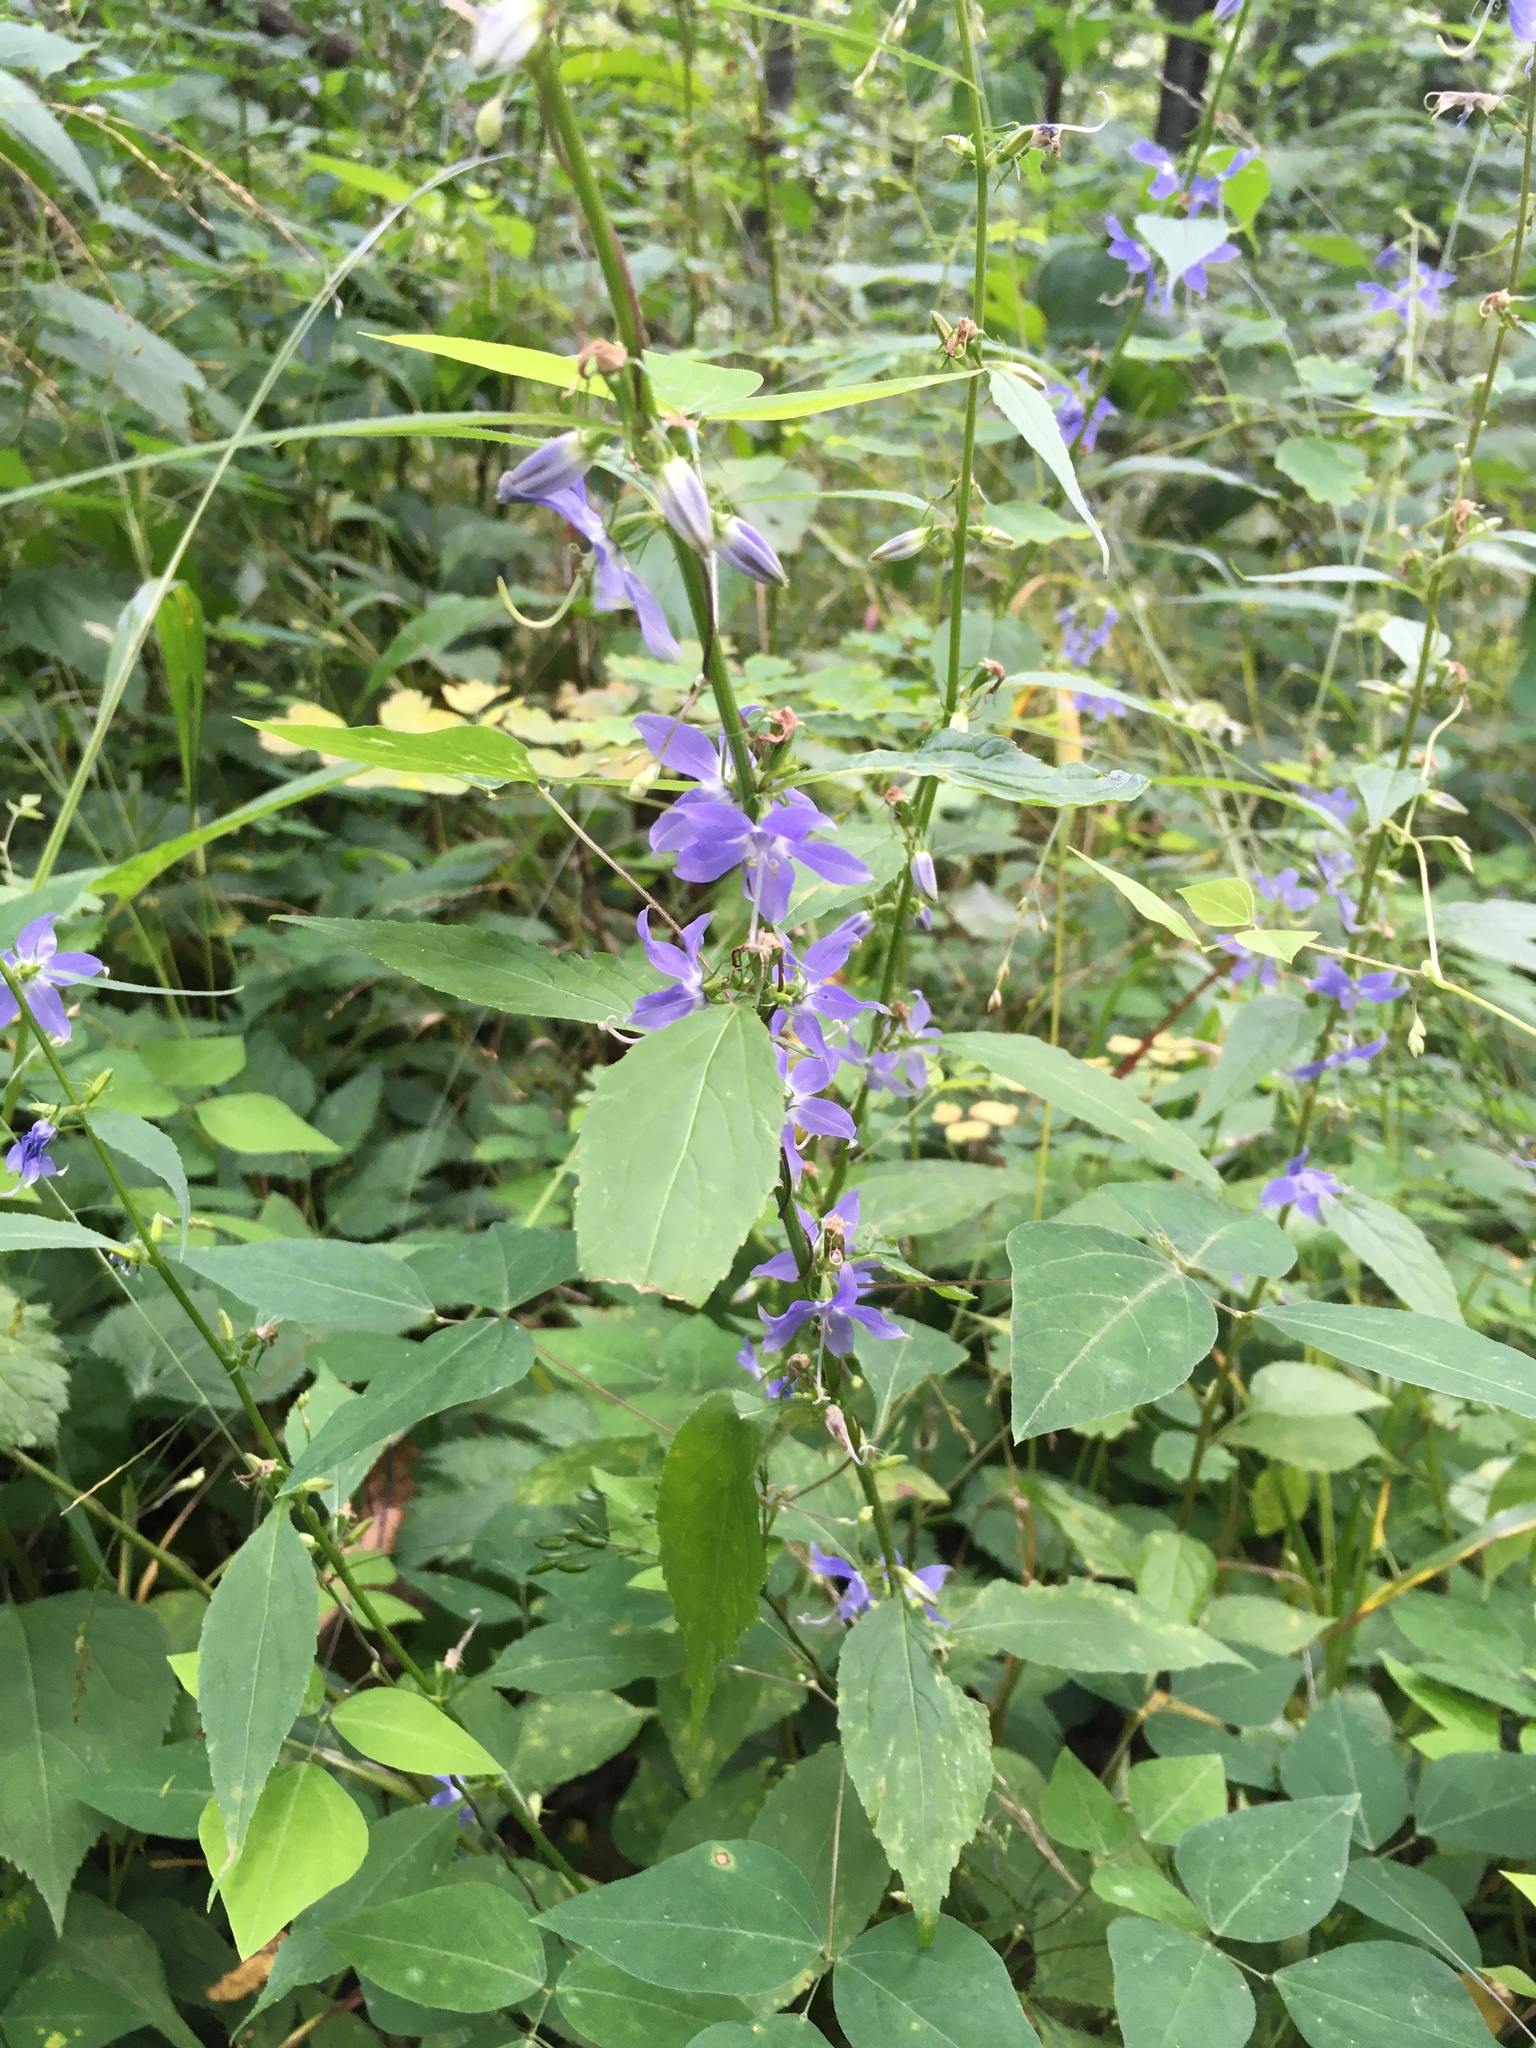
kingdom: Plantae
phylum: Tracheophyta
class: Magnoliopsida
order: Asterales
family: Campanulaceae
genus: Campanulastrum
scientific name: Campanulastrum americanum
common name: American bellflower
